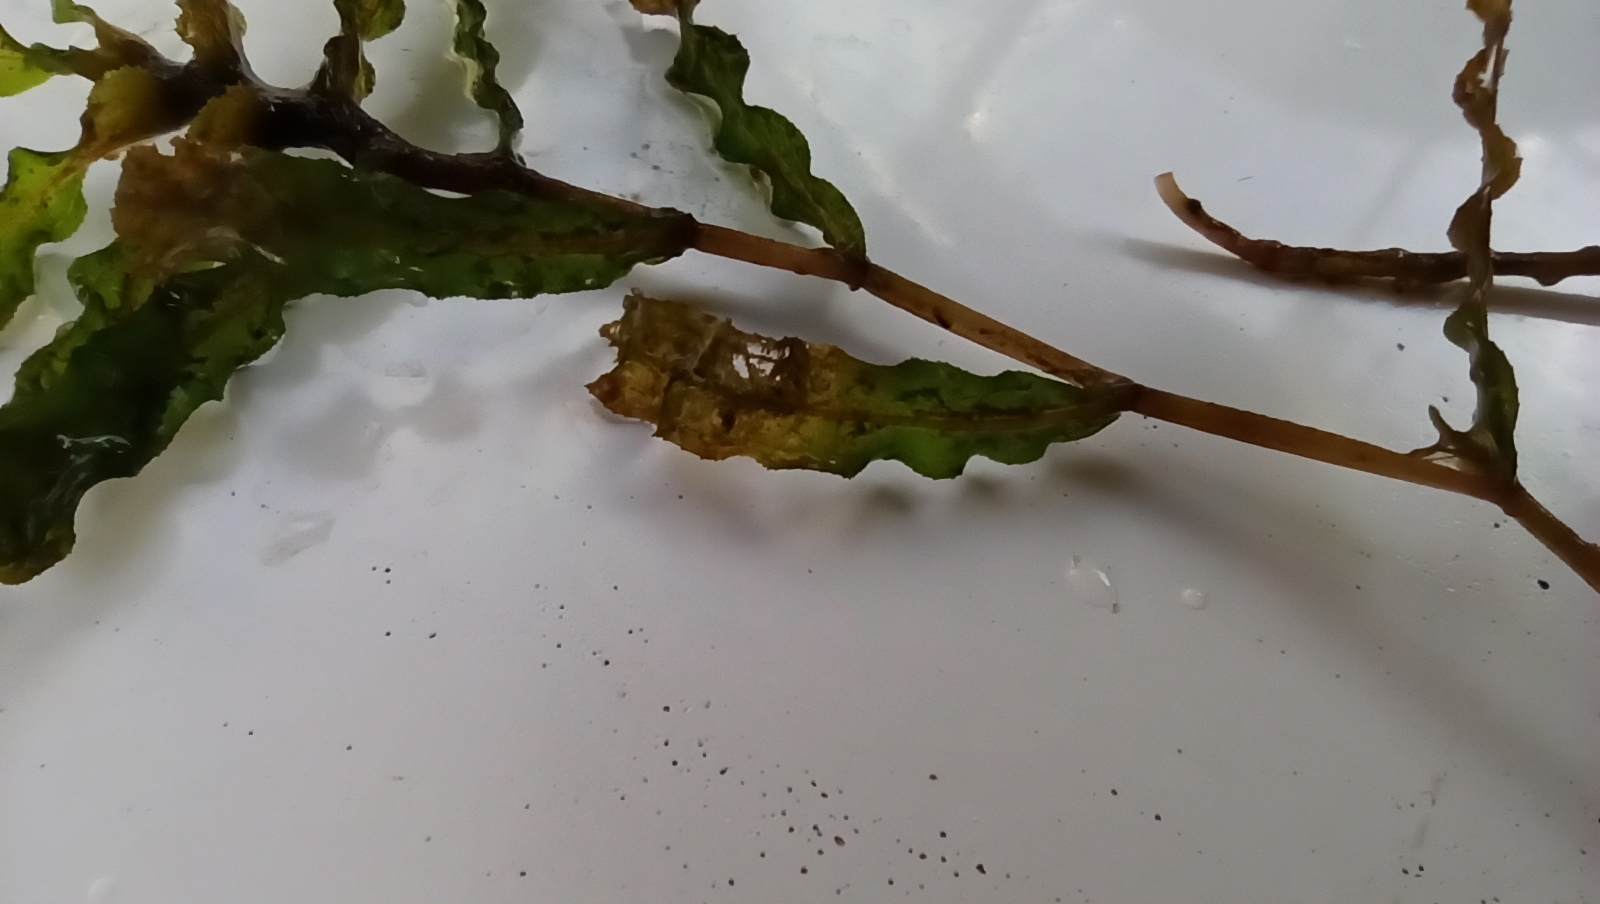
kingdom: Plantae
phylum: Tracheophyta
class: Liliopsida
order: Alismatales
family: Potamogetonaceae
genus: Potamogeton
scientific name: Potamogeton crispus
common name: Curled pondweed
